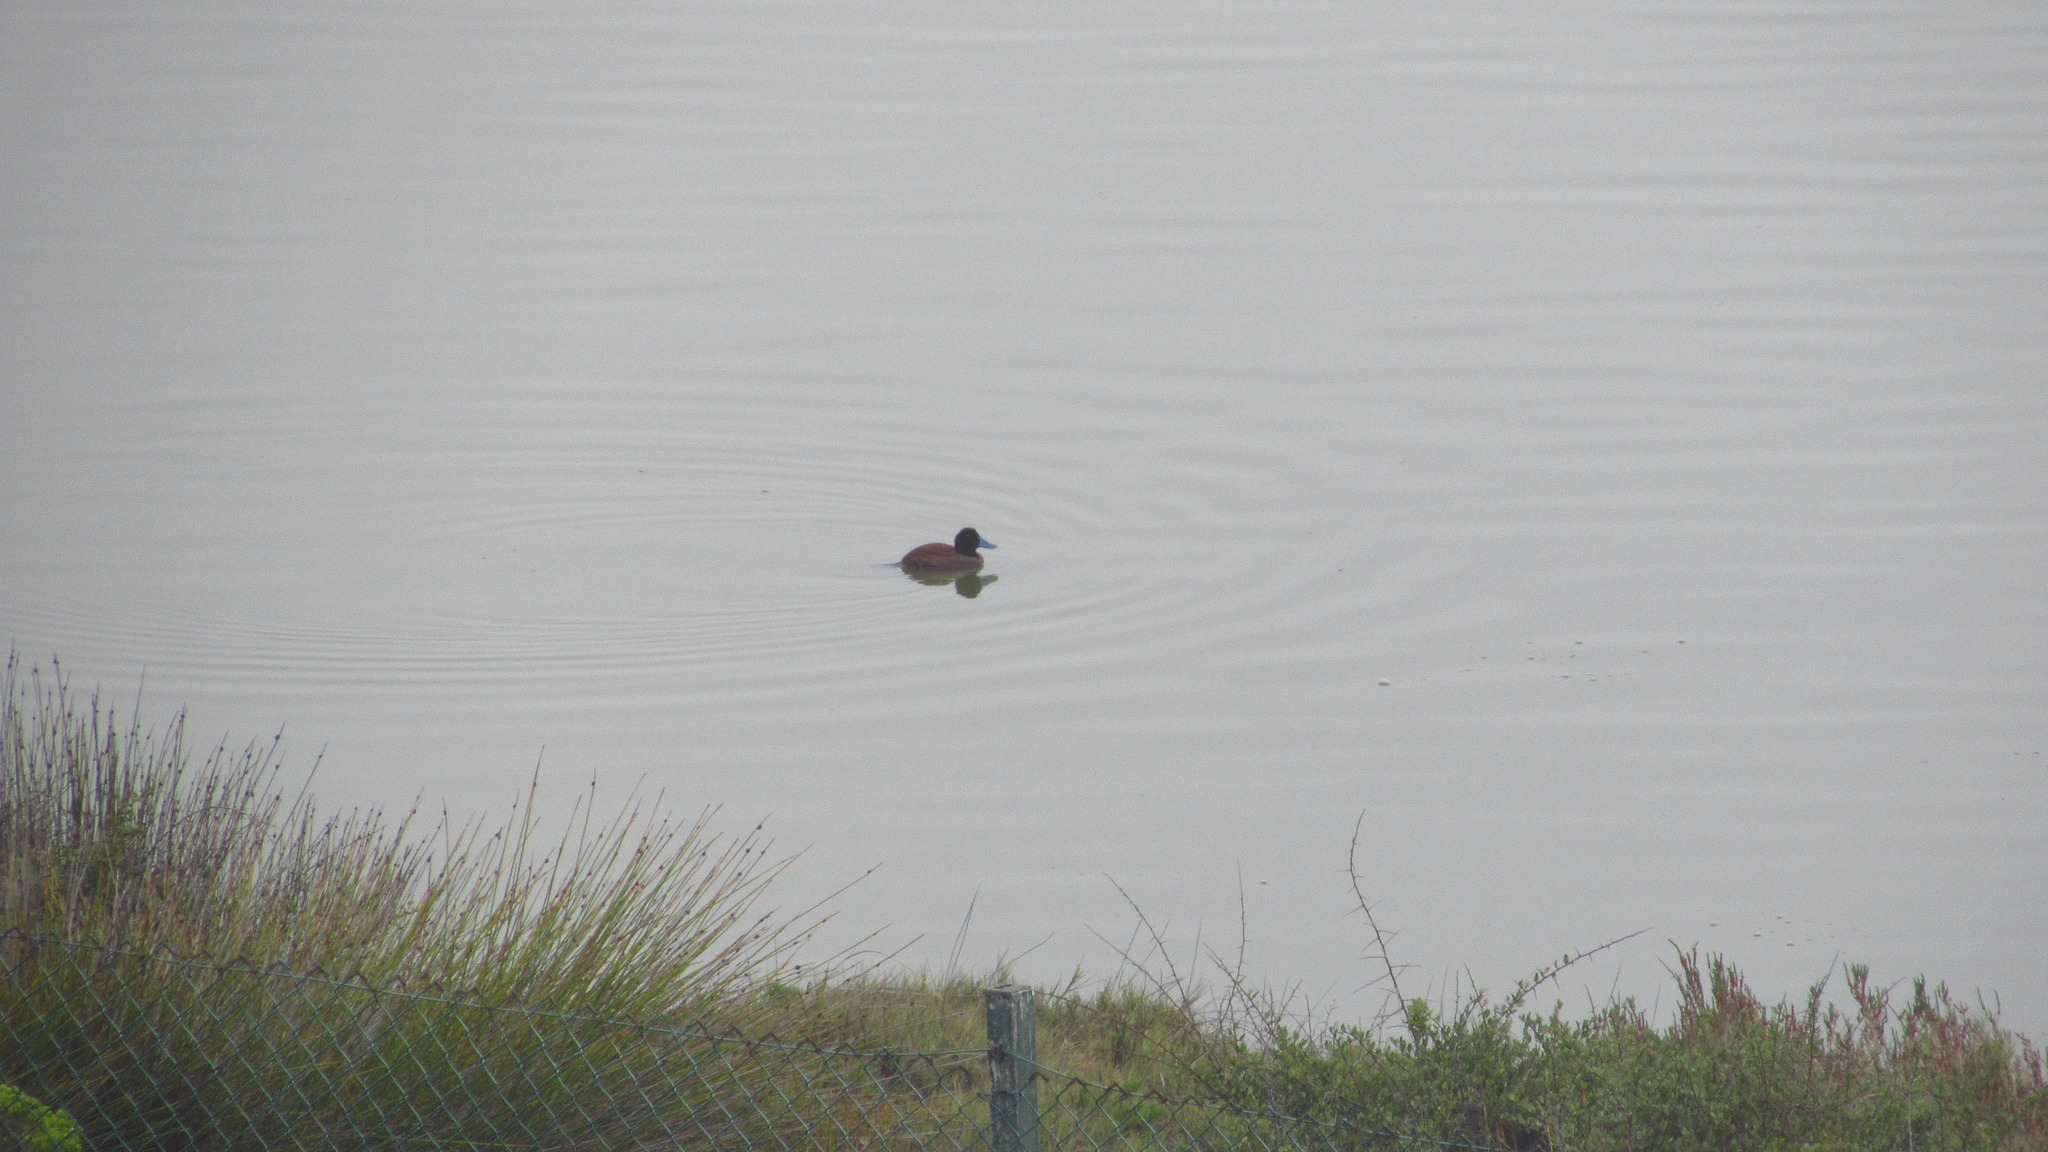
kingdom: Animalia
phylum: Chordata
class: Aves
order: Anseriformes
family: Anatidae
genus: Oxyura
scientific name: Oxyura vittata
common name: Lake duck
